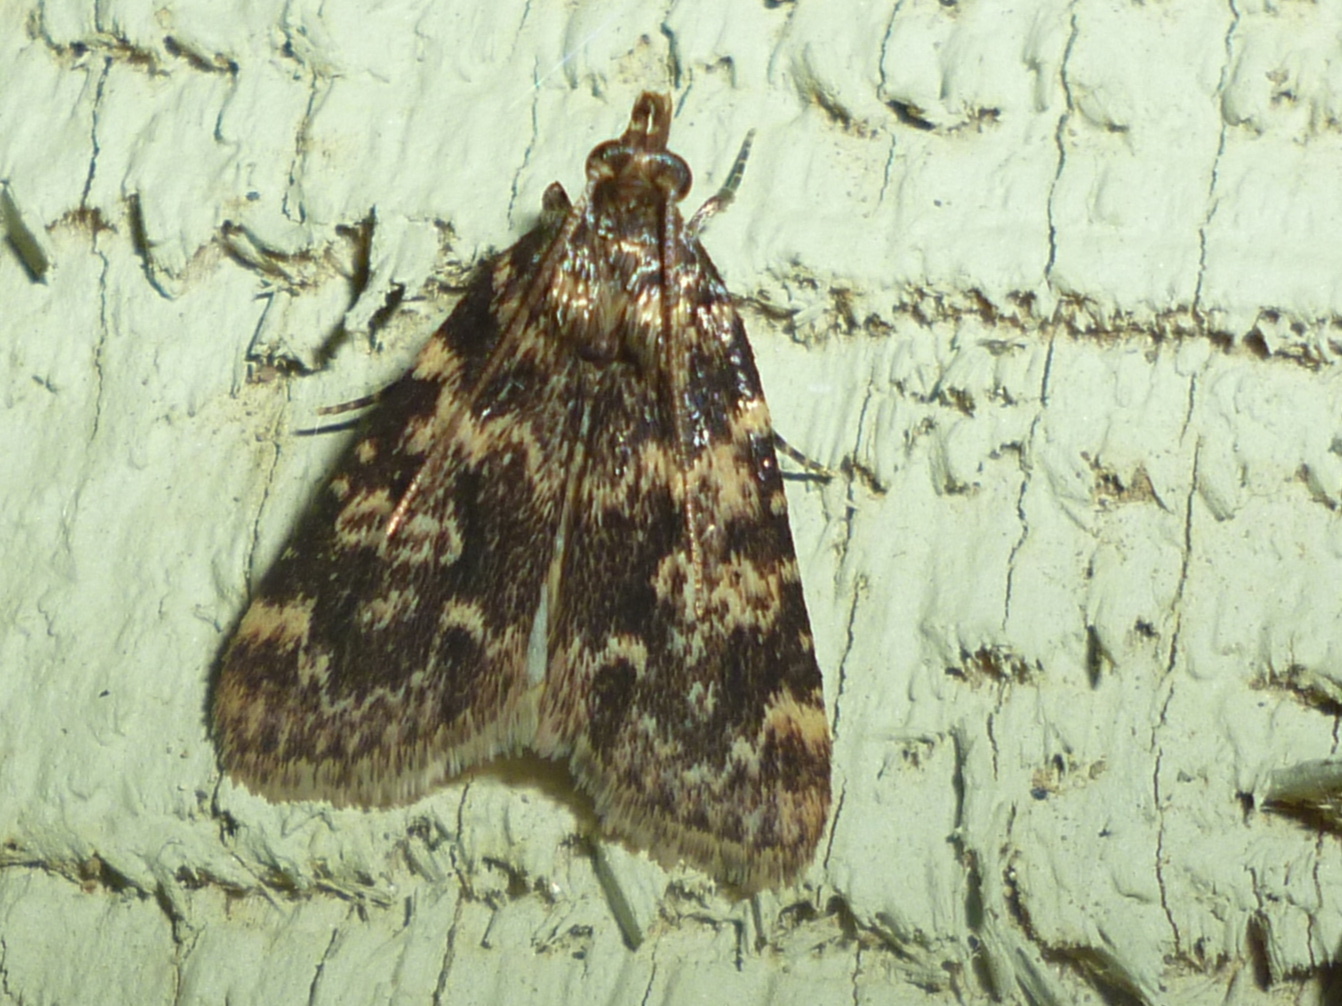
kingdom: Animalia
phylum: Arthropoda
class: Insecta
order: Lepidoptera
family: Pyralidae
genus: Aglossa
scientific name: Aglossa caprealis
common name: Small tabby
